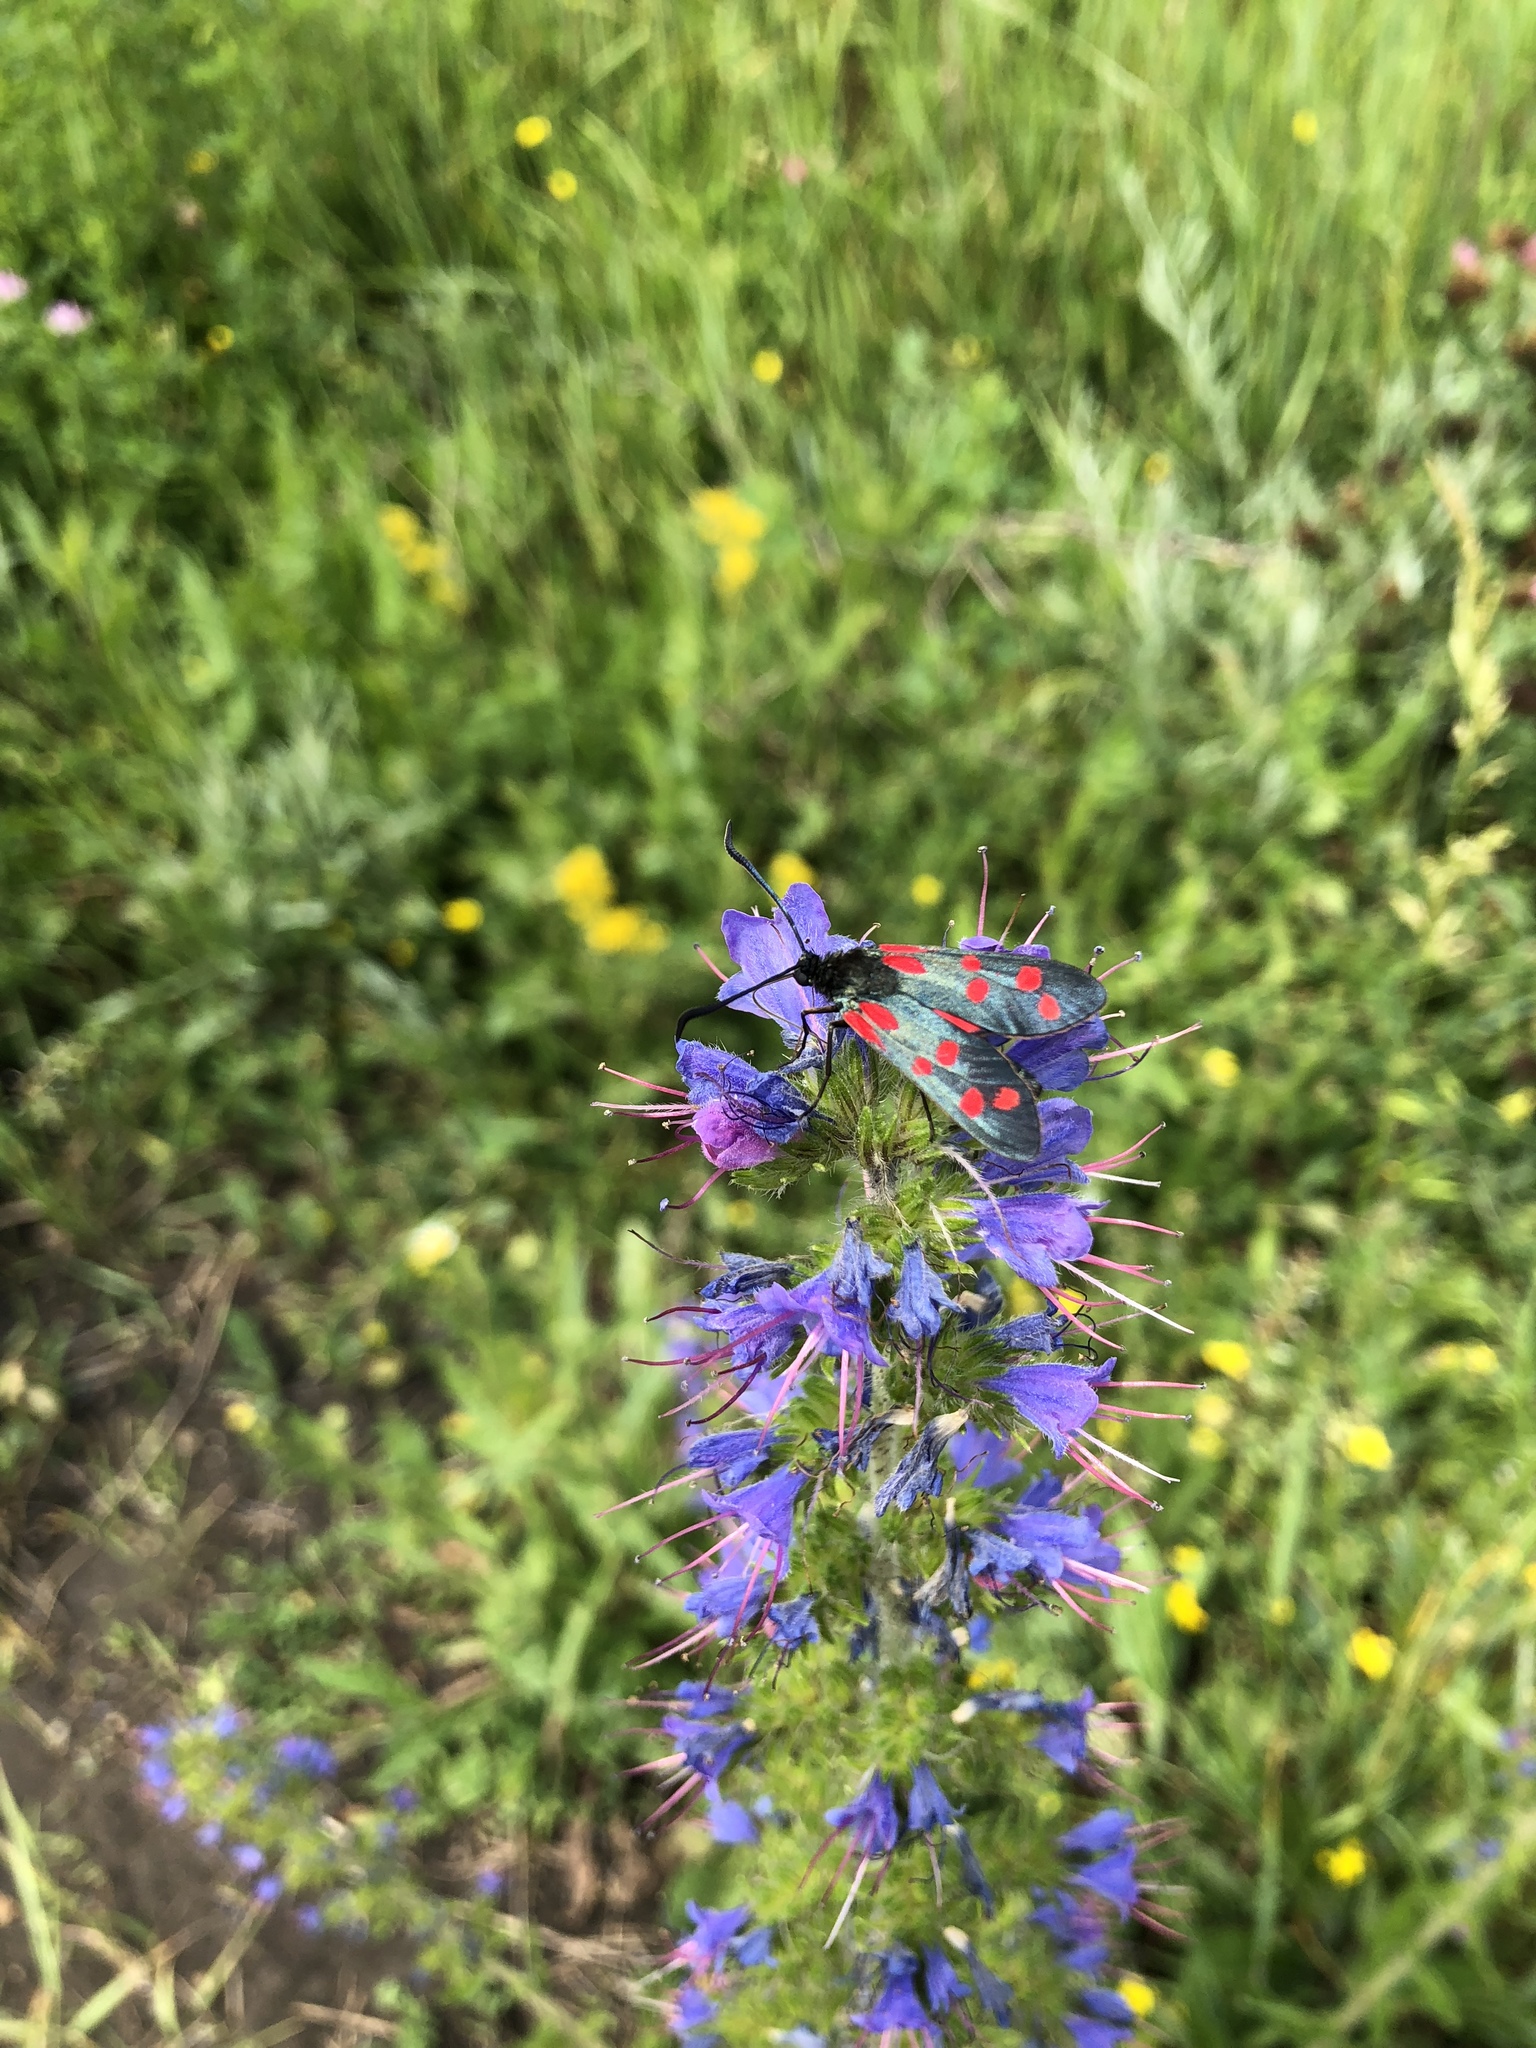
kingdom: Animalia
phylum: Arthropoda
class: Insecta
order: Lepidoptera
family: Zygaenidae
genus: Zygaena
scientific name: Zygaena filipendulae
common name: Six-spot burnet
